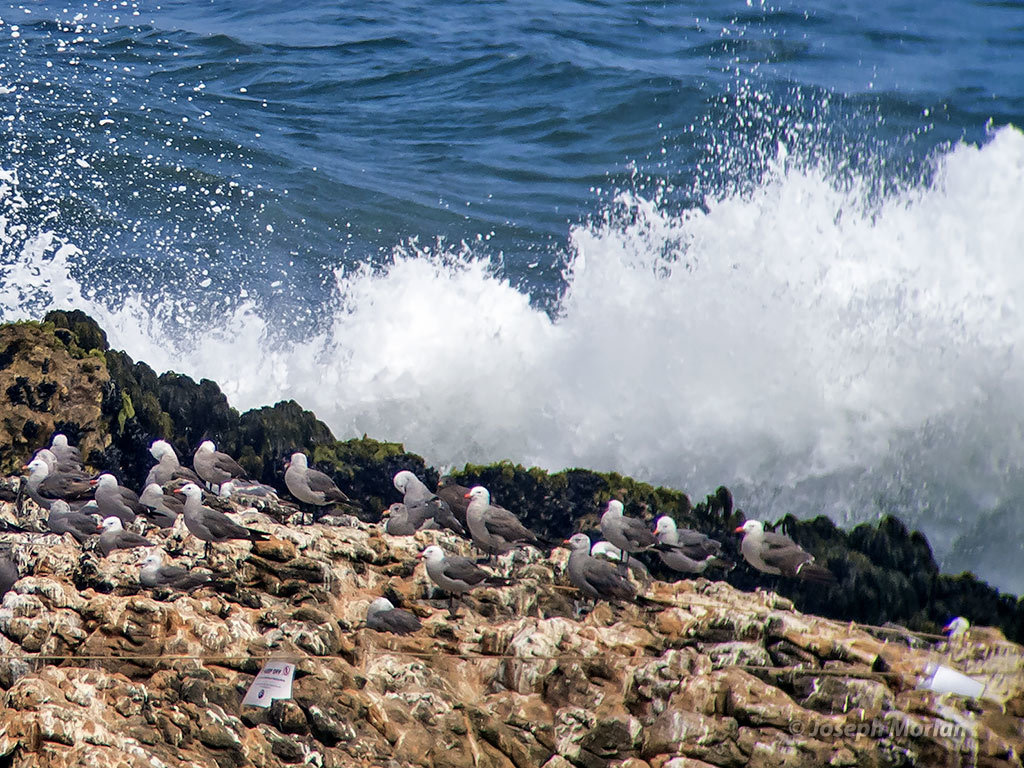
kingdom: Animalia
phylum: Chordata
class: Aves
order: Charadriiformes
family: Laridae
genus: Larus
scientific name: Larus heermanni
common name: Heermann's gull
